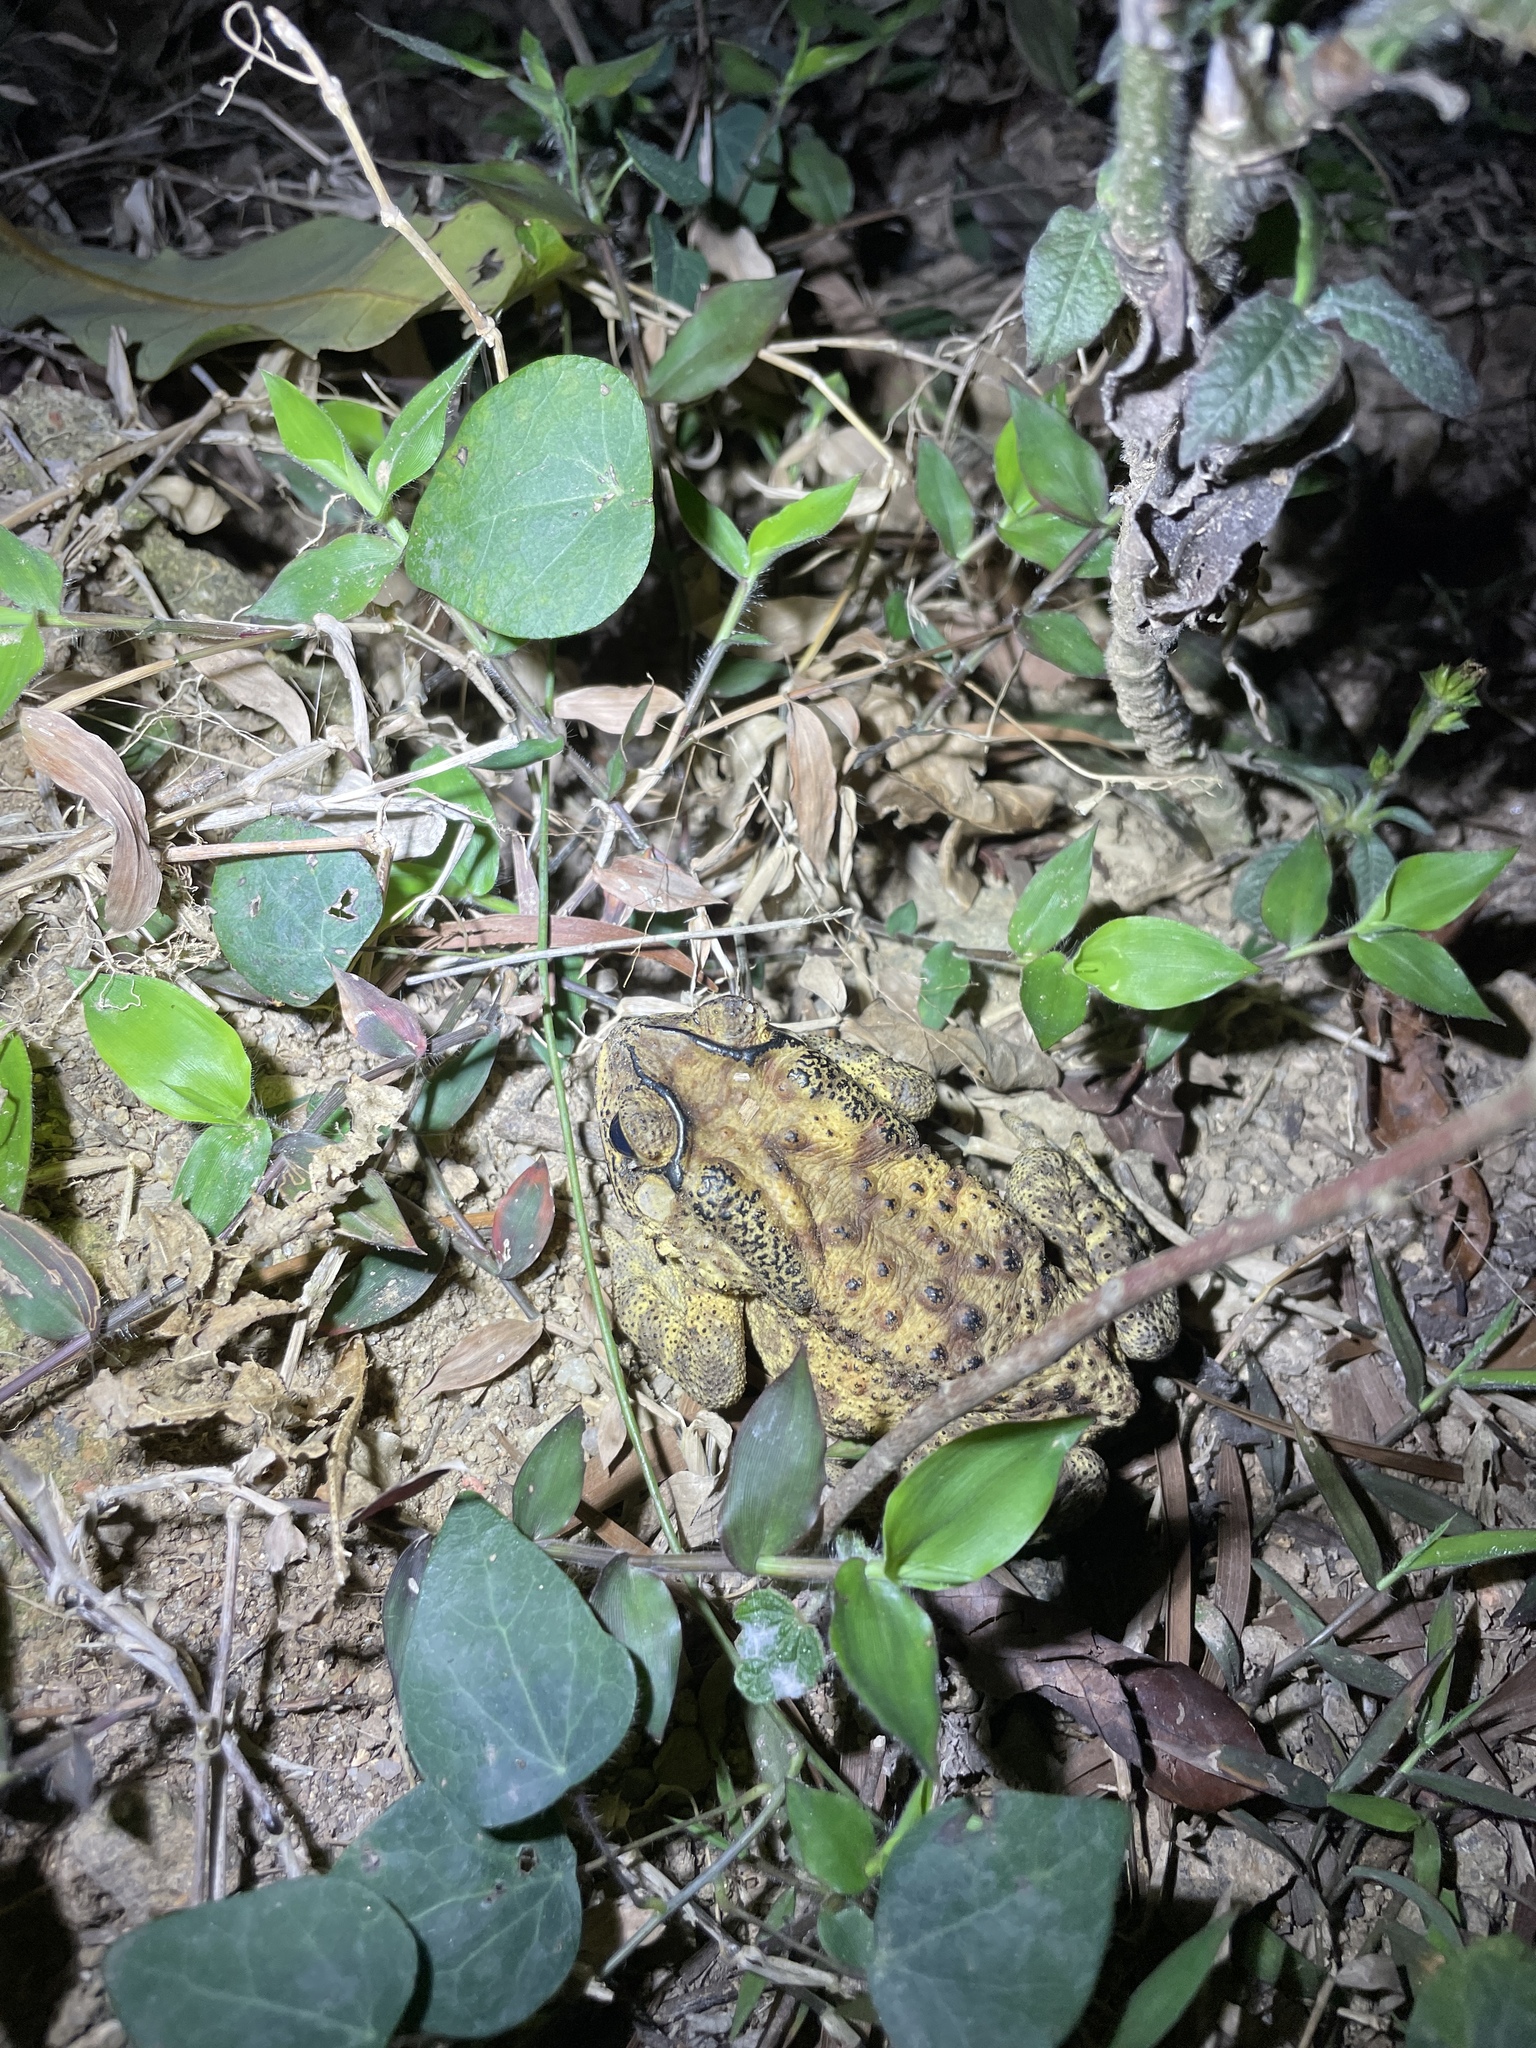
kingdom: Animalia
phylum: Chordata
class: Amphibia
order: Anura
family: Bufonidae
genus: Duttaphrynus
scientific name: Duttaphrynus melanostictus
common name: Common sunda toad
